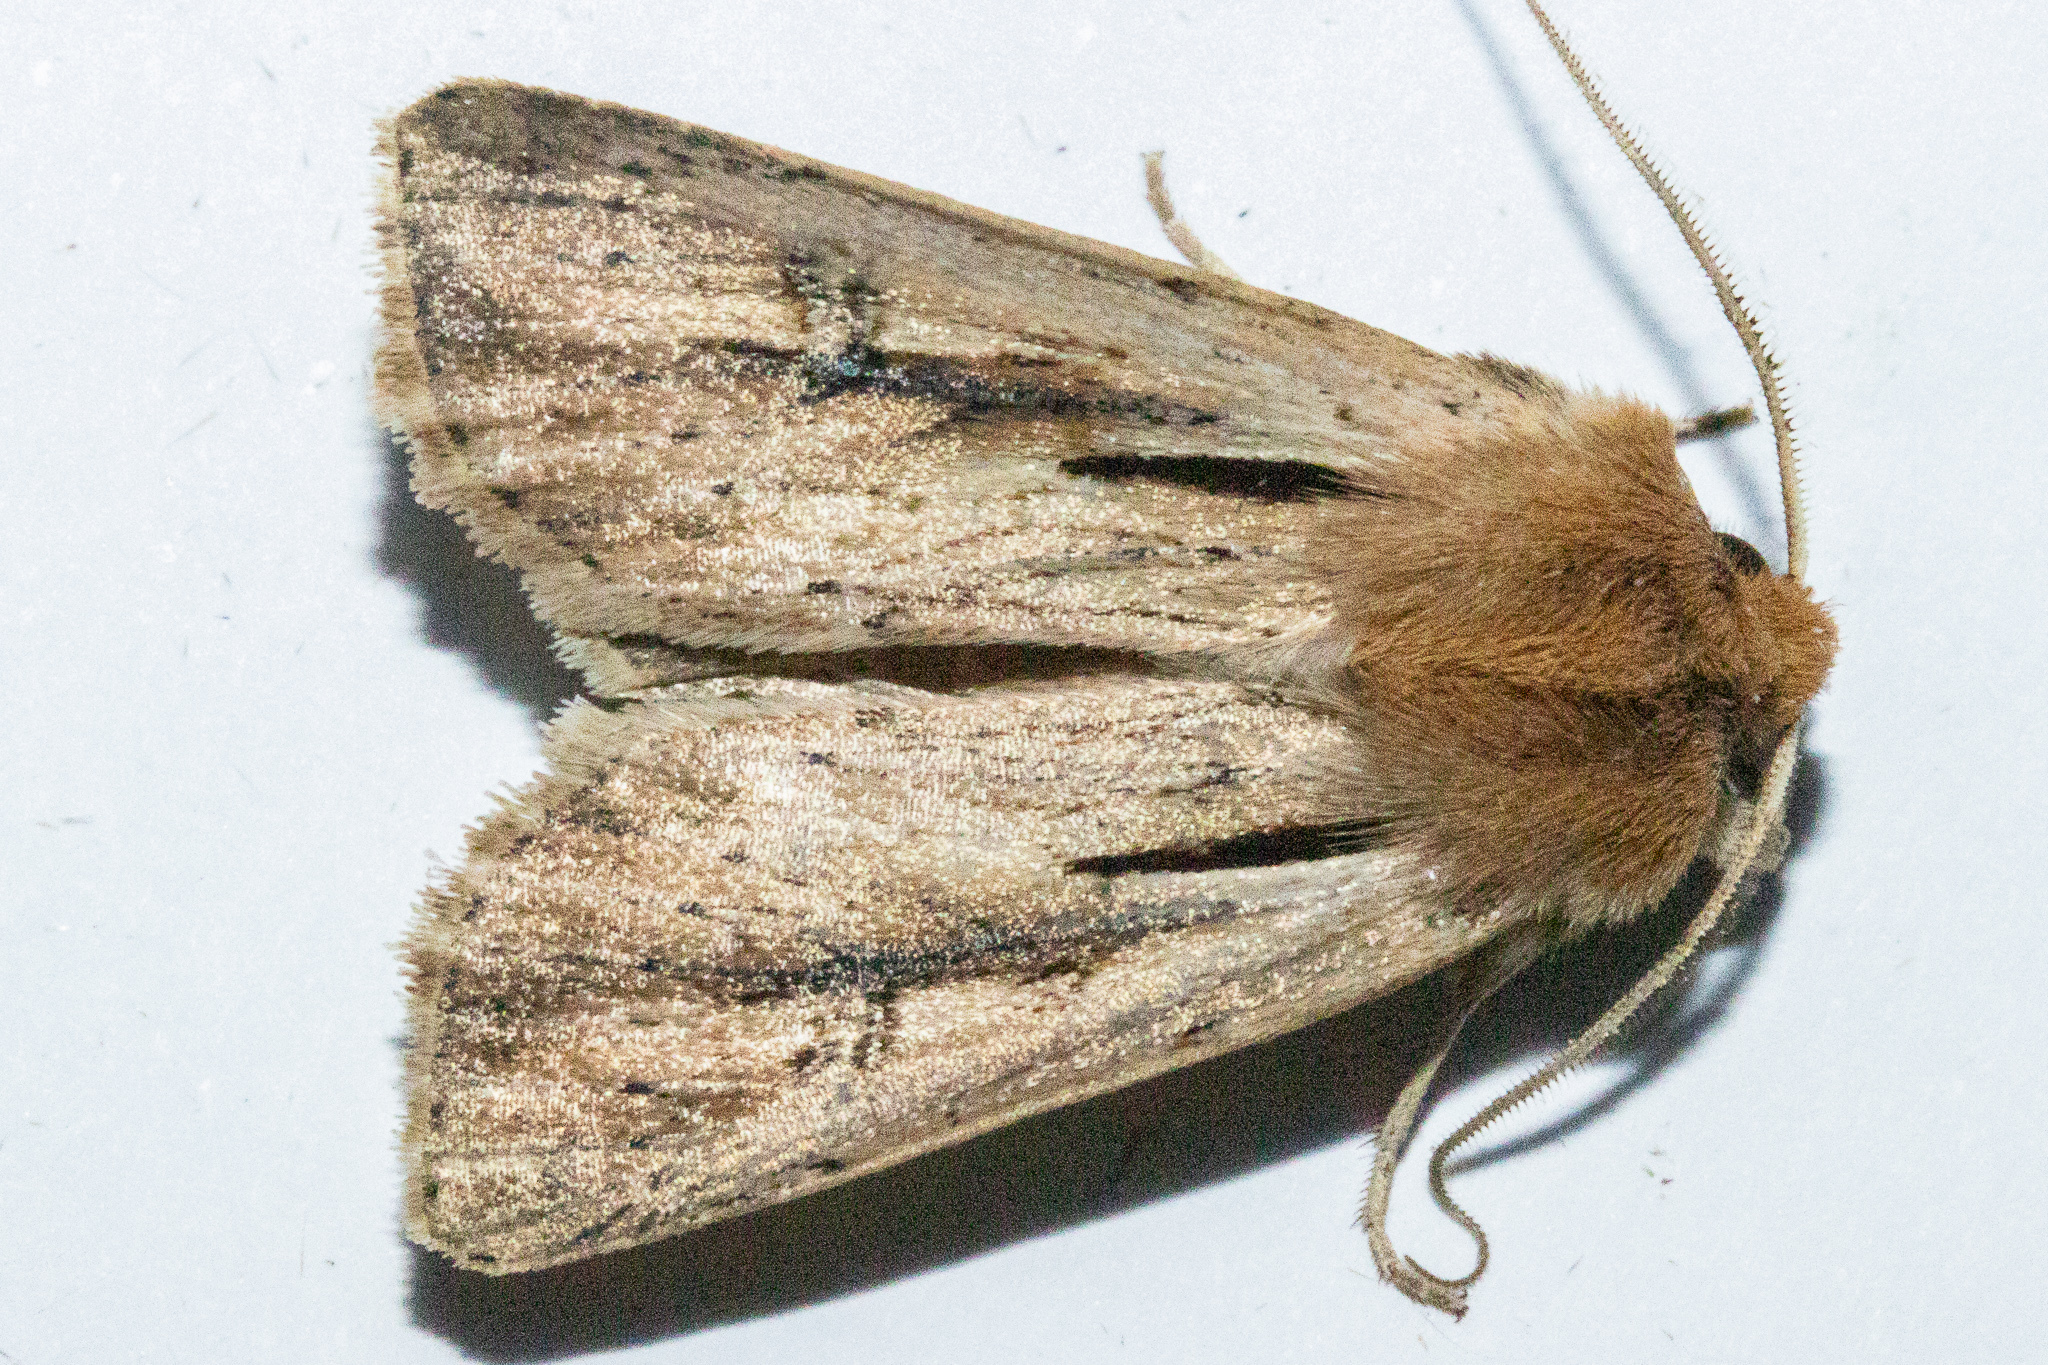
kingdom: Animalia
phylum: Arthropoda
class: Insecta
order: Lepidoptera
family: Noctuidae
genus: Ichneutica
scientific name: Ichneutica propria
